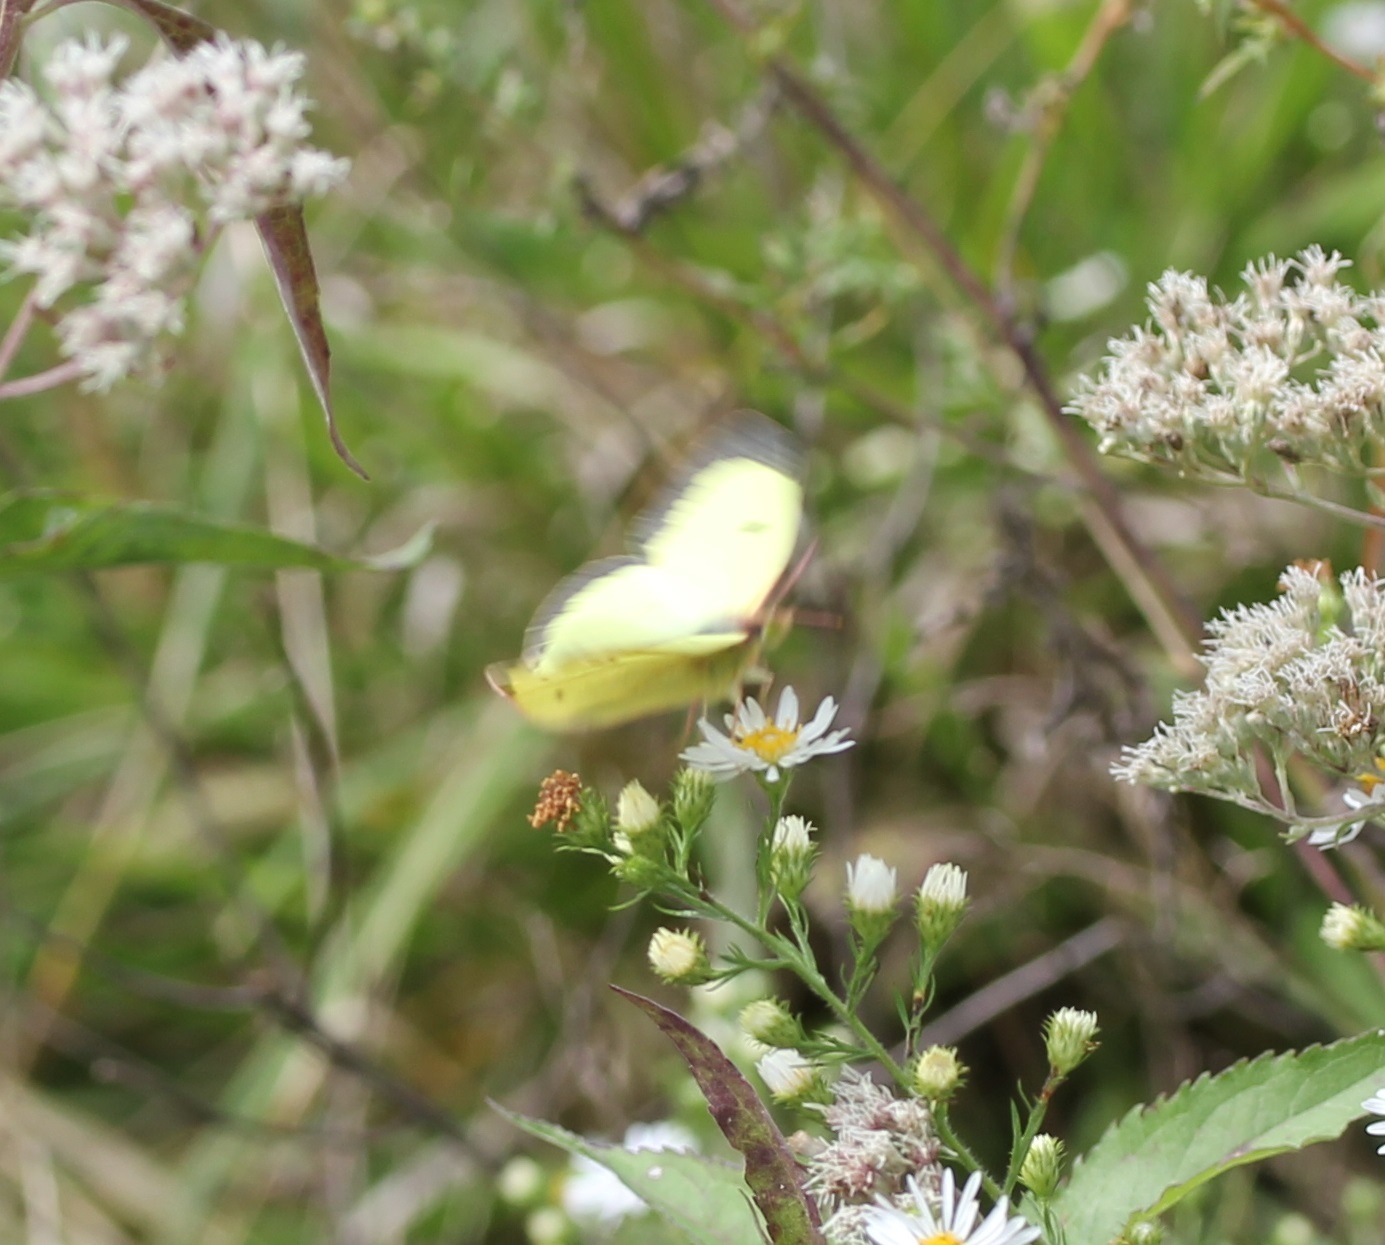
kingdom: Animalia
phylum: Arthropoda
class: Insecta
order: Lepidoptera
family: Pieridae
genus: Colias
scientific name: Colias philodice
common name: Clouded sulphur
